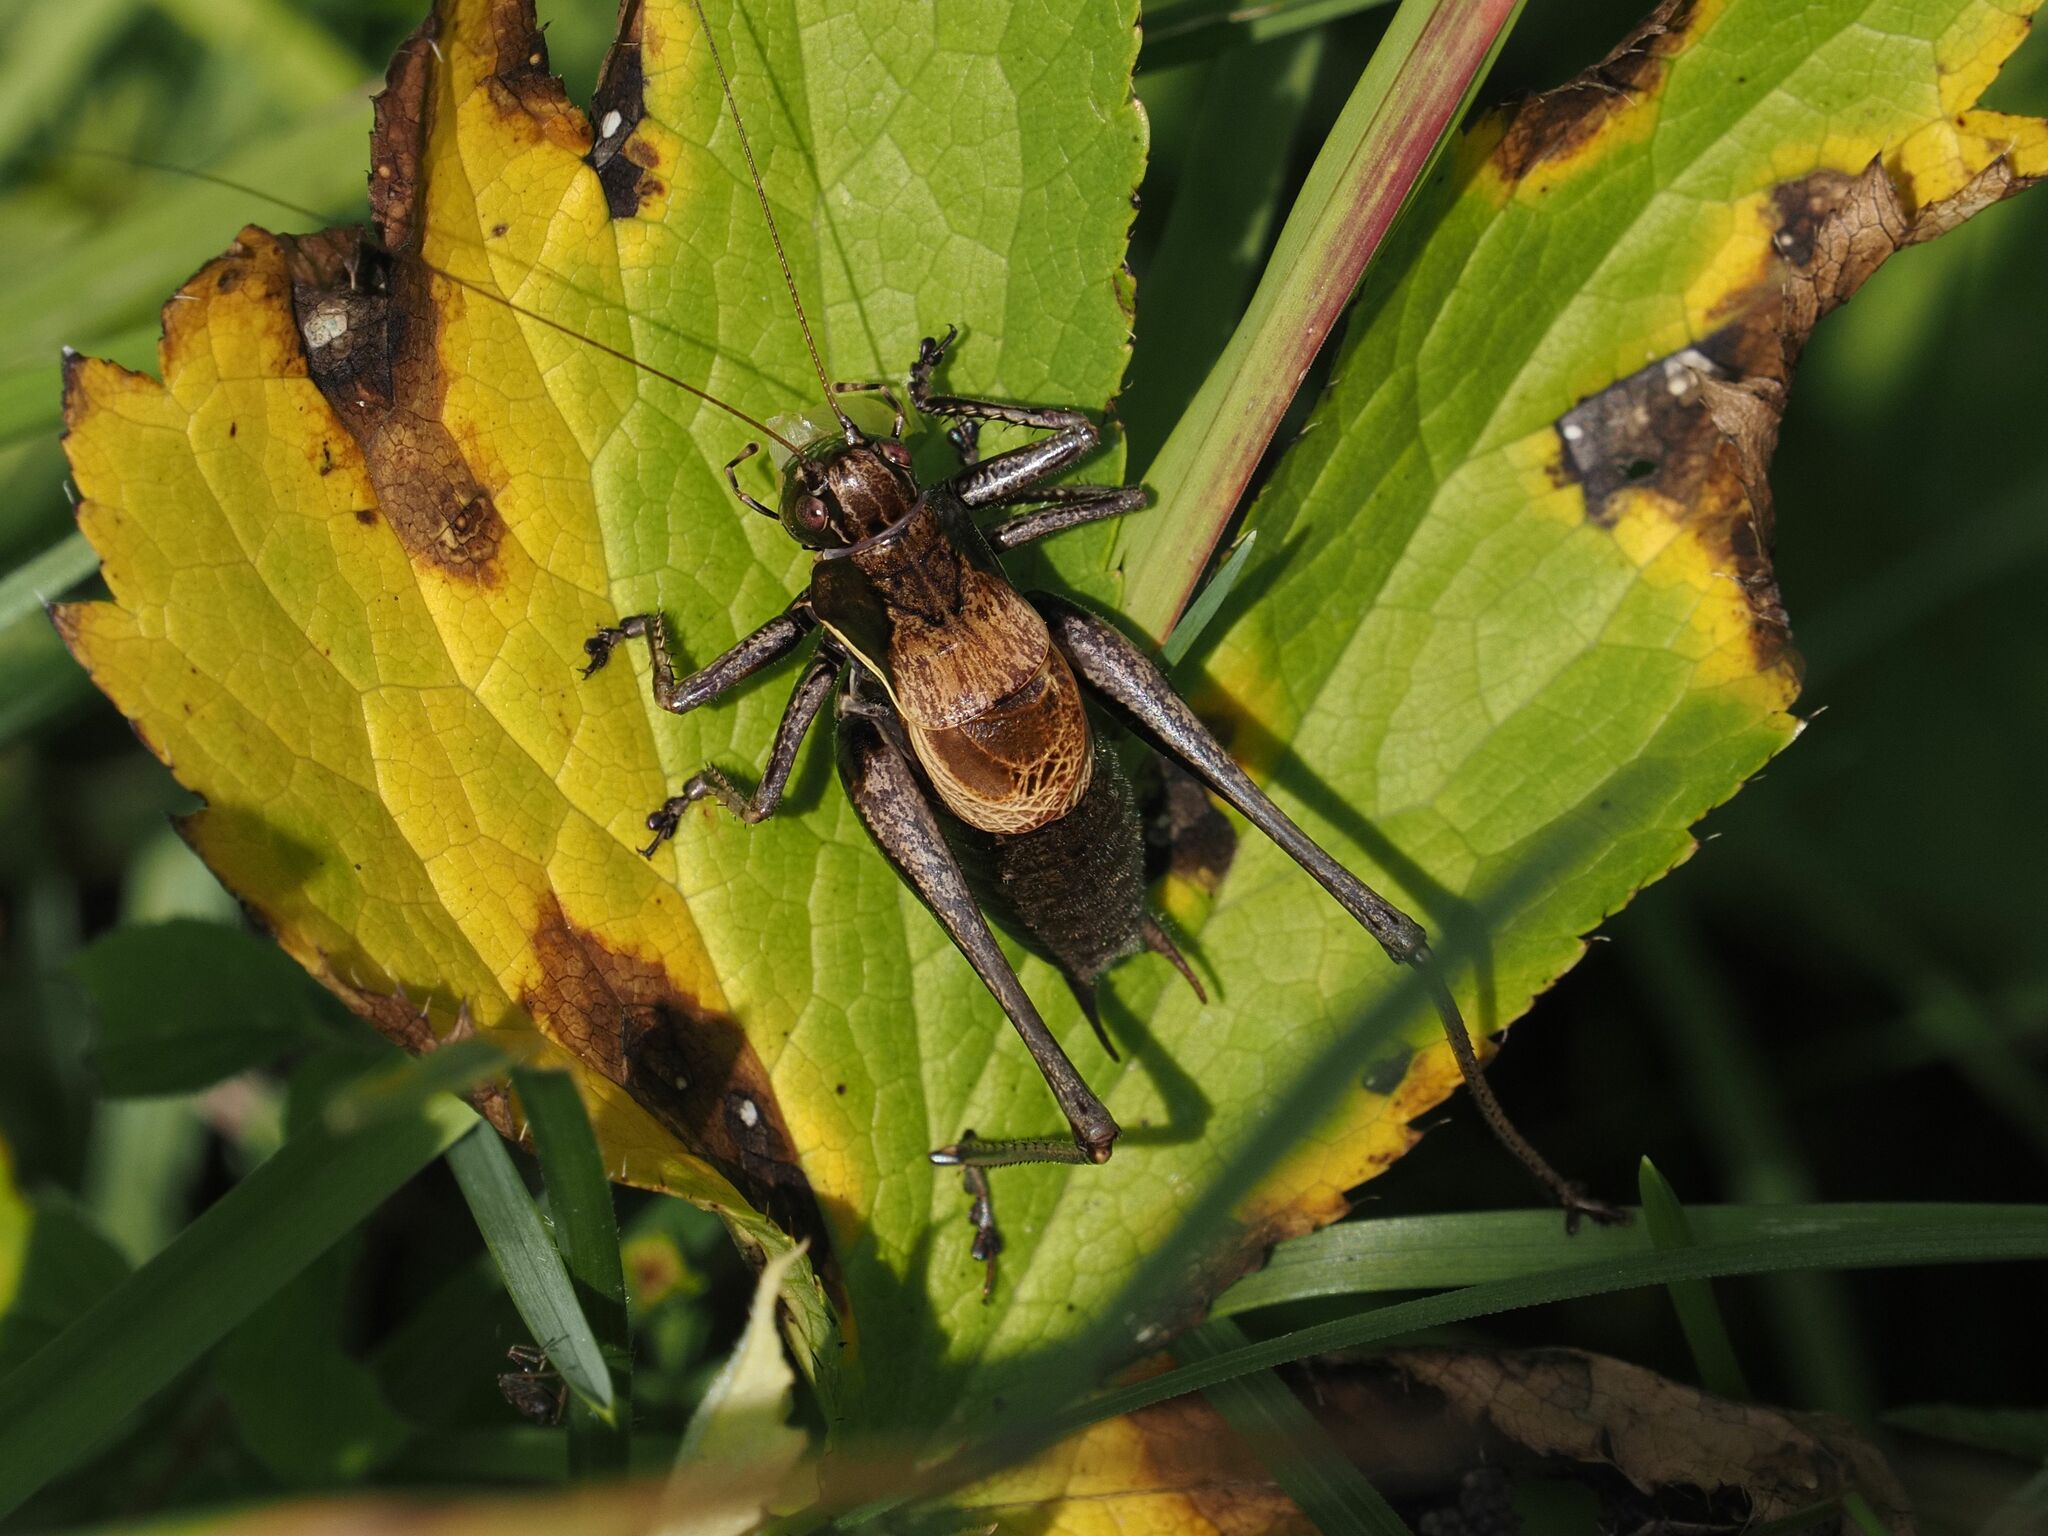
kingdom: Animalia
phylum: Arthropoda
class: Insecta
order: Orthoptera
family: Tettigoniidae
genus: Pholidoptera
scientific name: Pholidoptera aptera
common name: Alpine dark bush-cricket
